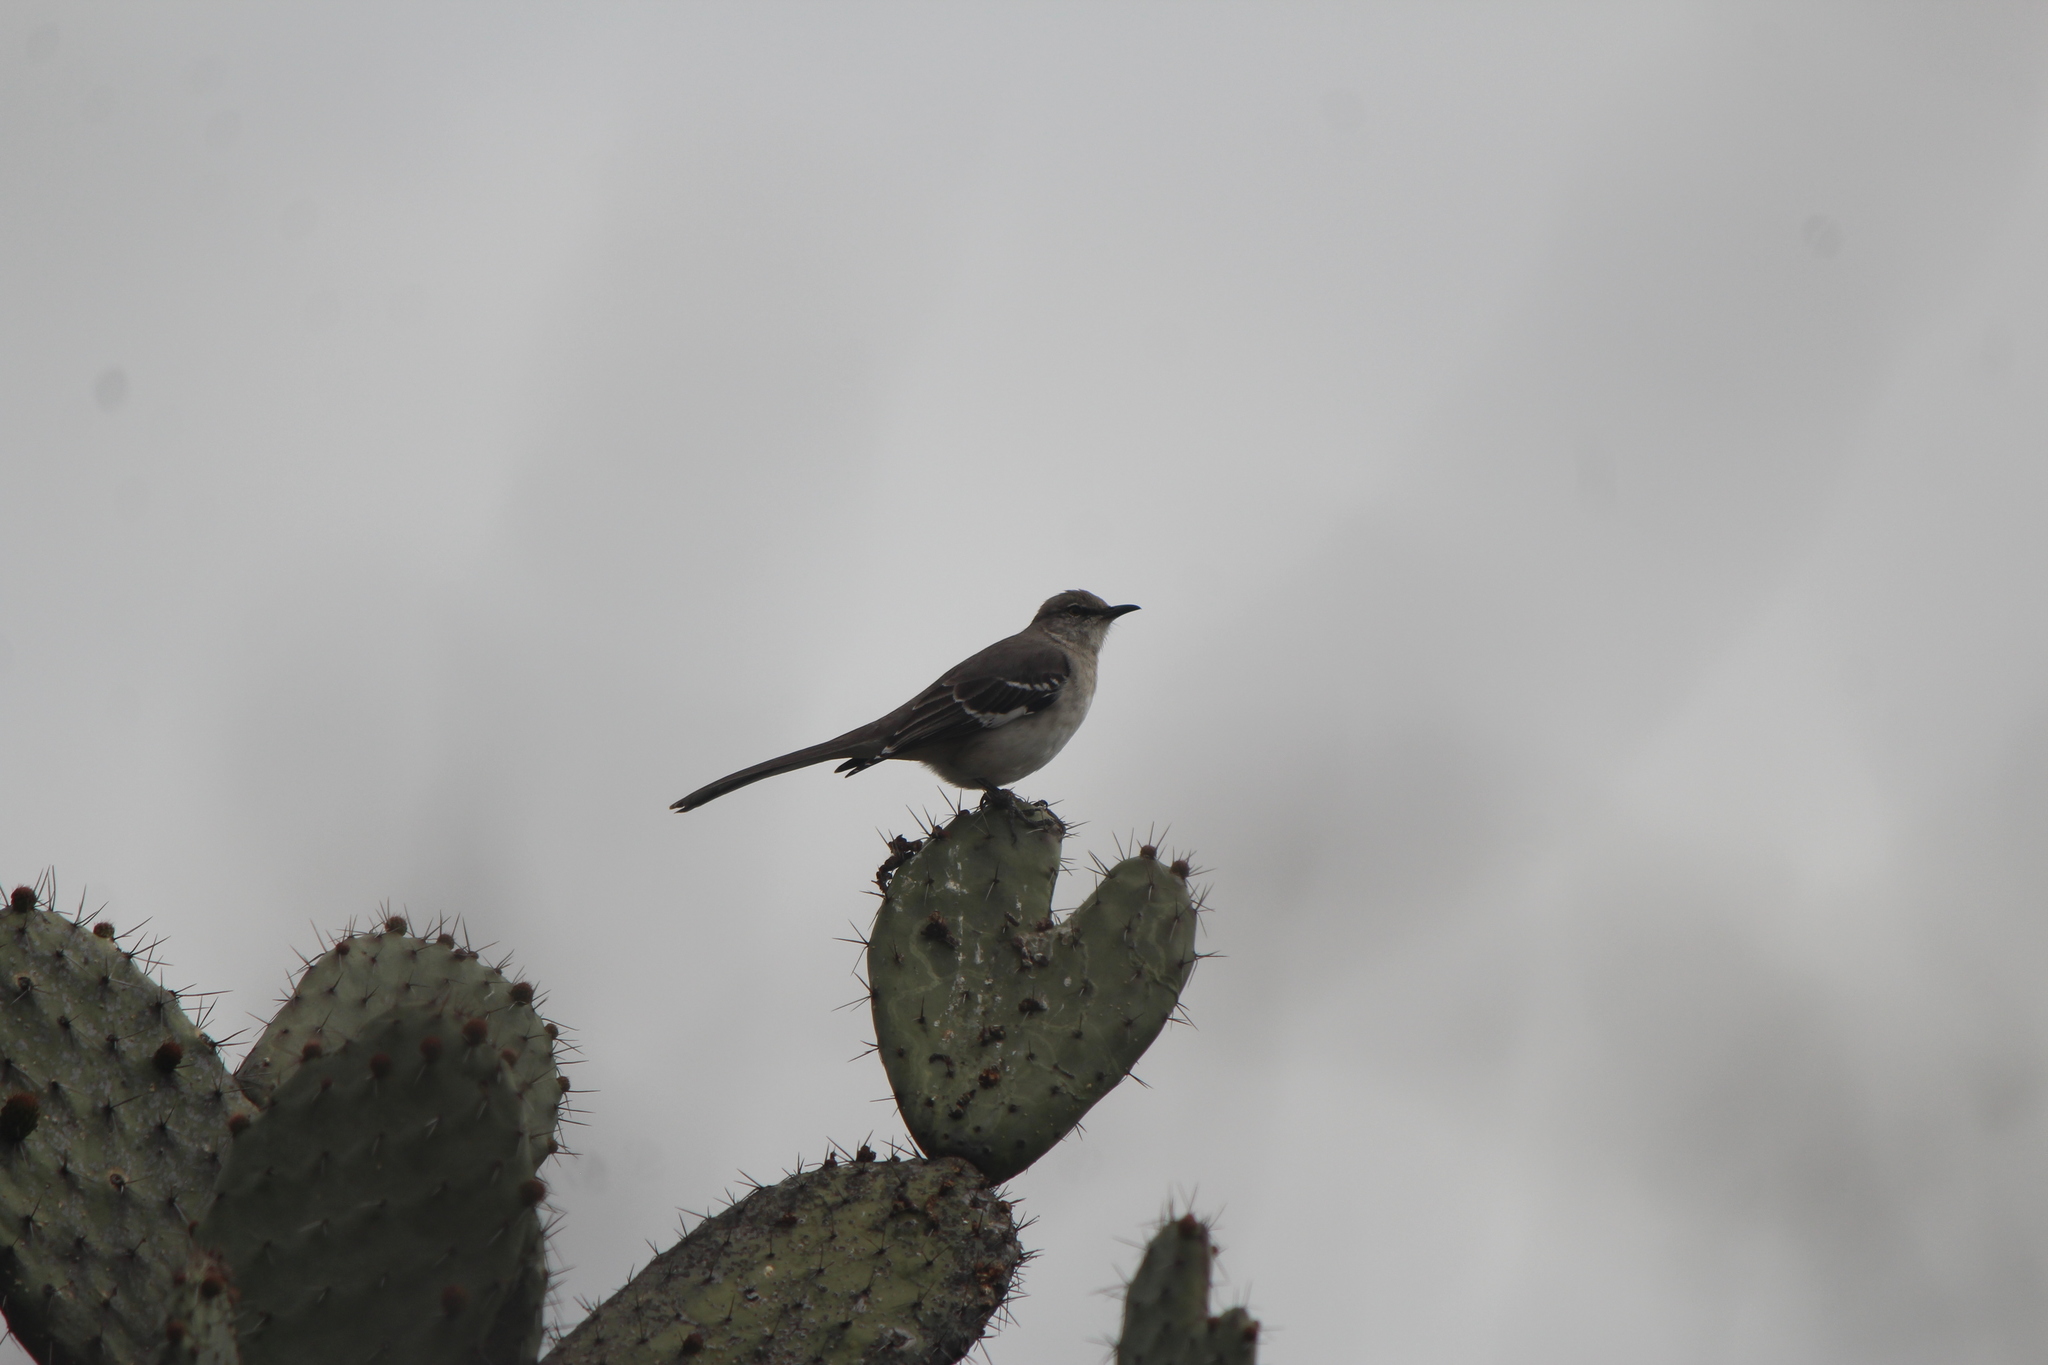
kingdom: Animalia
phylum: Chordata
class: Aves
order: Passeriformes
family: Mimidae
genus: Mimus
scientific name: Mimus polyglottos
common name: Northern mockingbird
